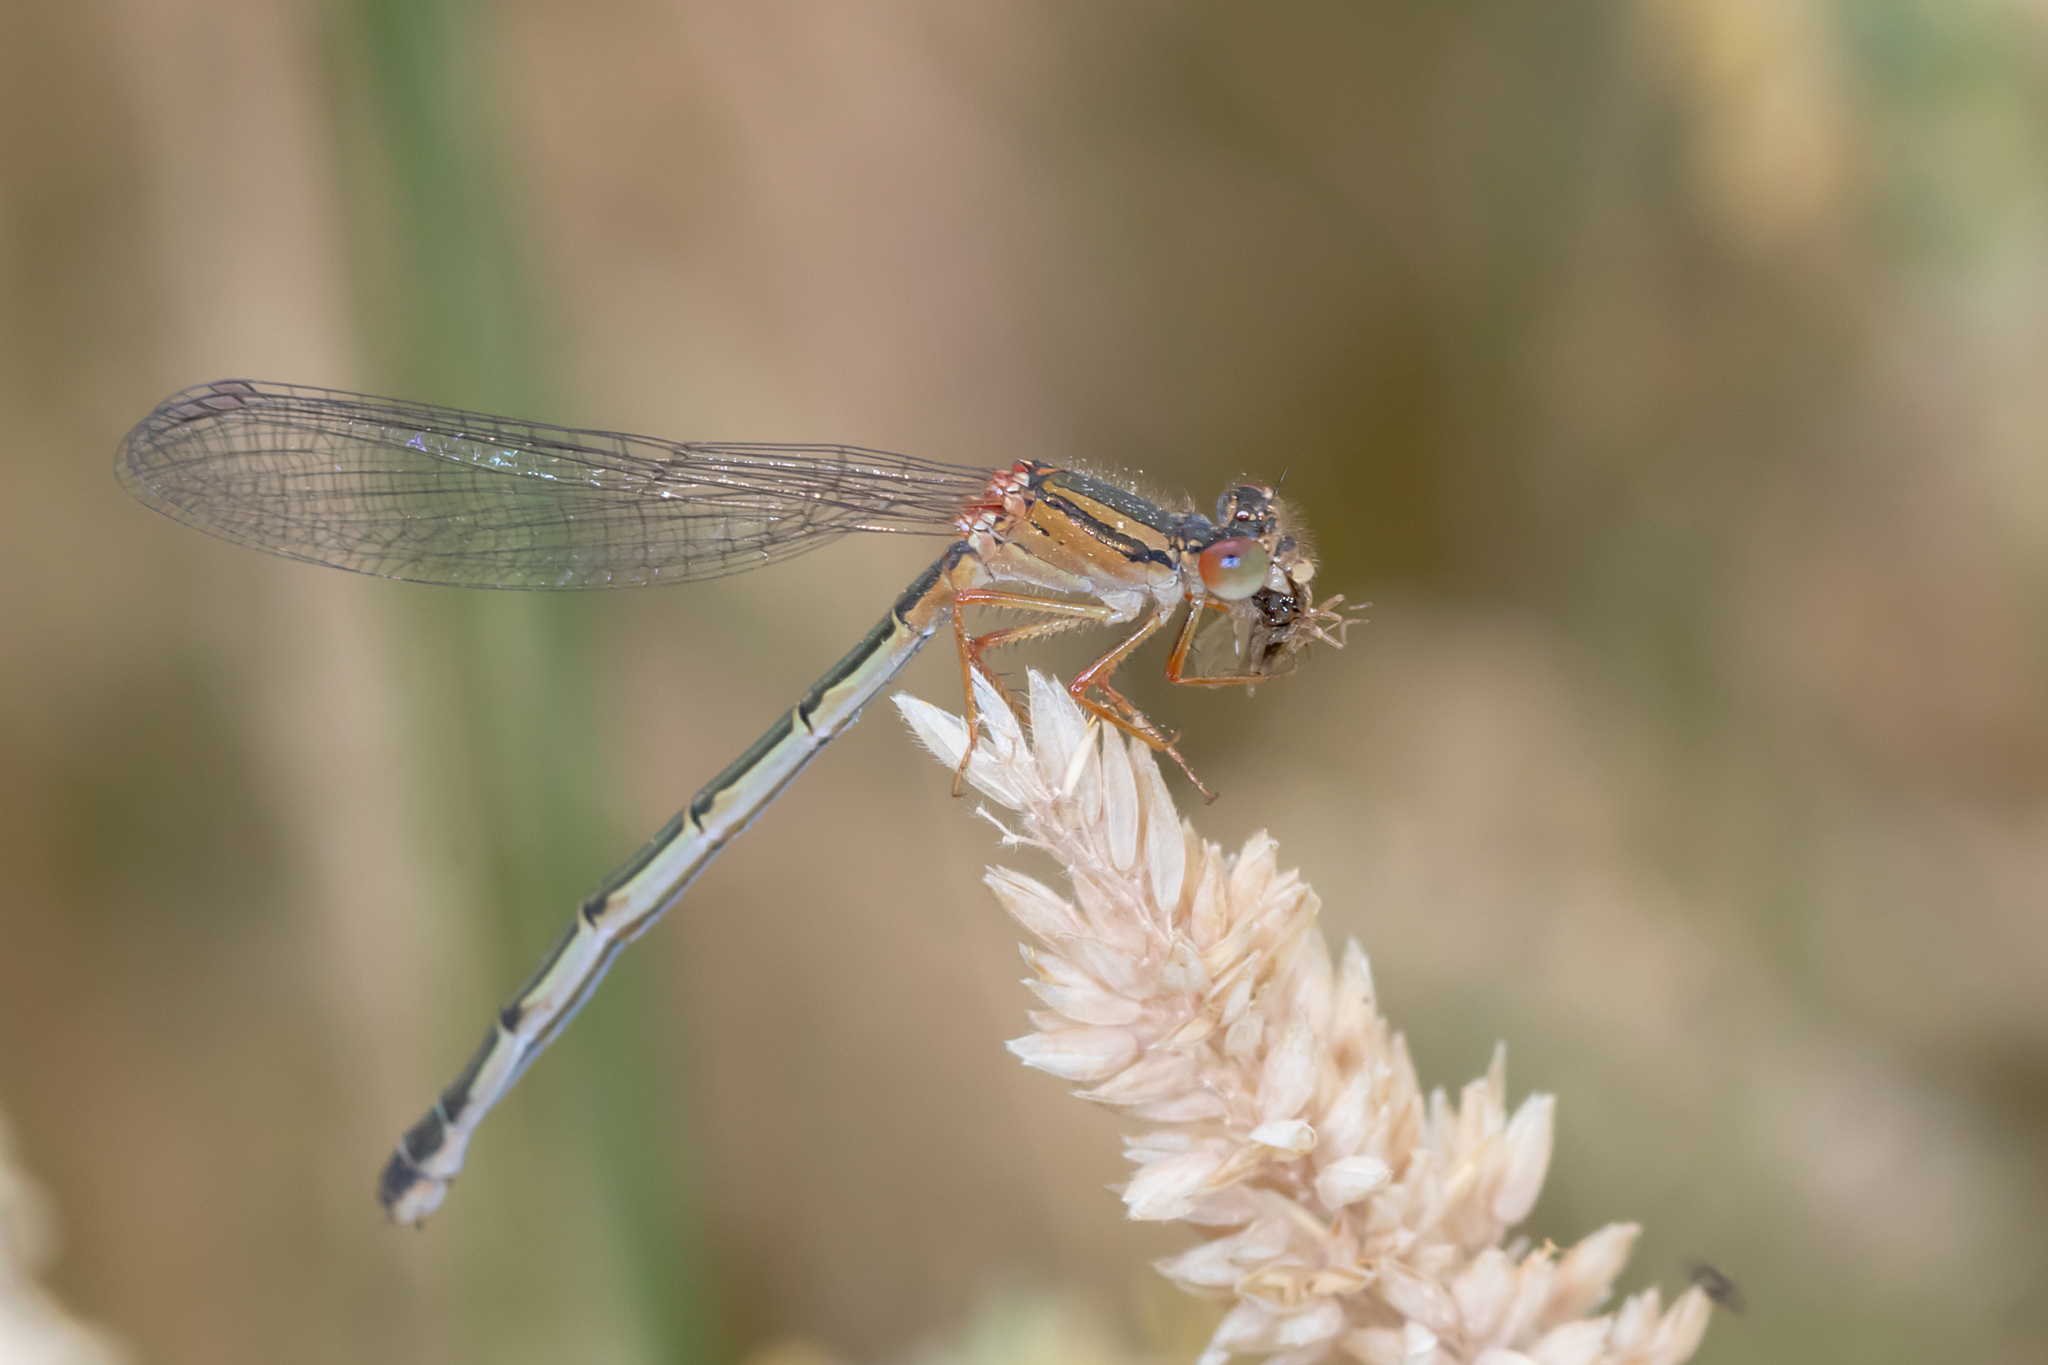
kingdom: Animalia
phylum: Arthropoda
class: Insecta
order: Odonata
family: Coenagrionidae
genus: Xanthagrion
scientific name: Xanthagrion erythroneurum
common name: Red and blue damsel
